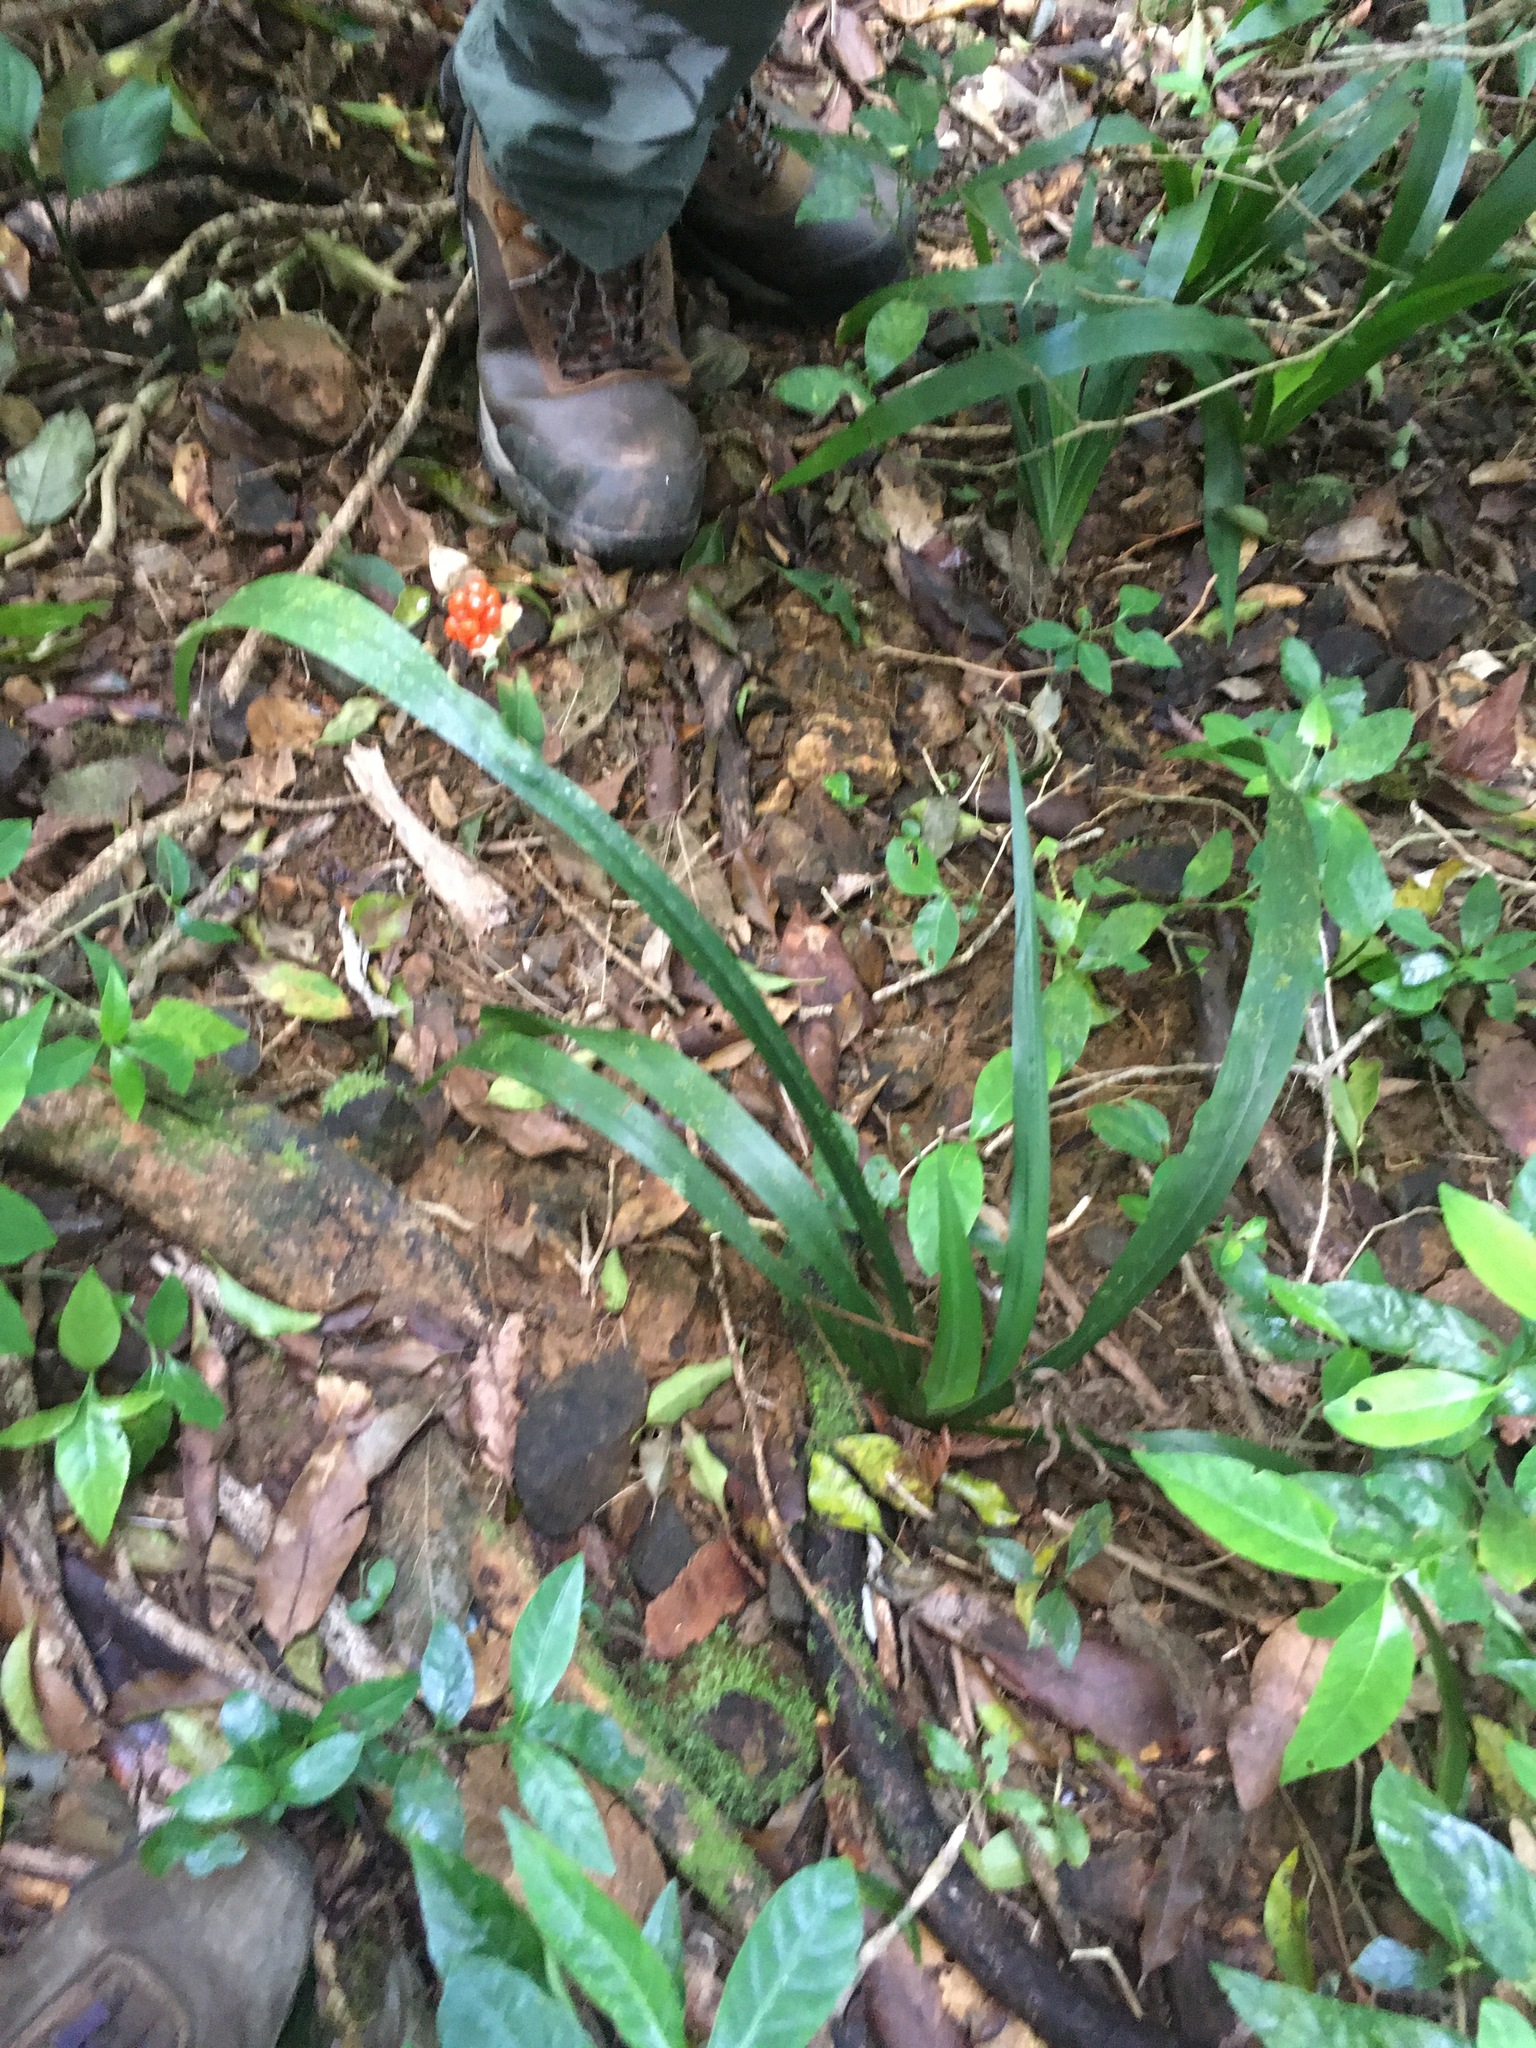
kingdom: Plantae
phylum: Tracheophyta
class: Liliopsida
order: Asparagales
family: Iridaceae
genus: Trimezia
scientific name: Trimezia variegata
